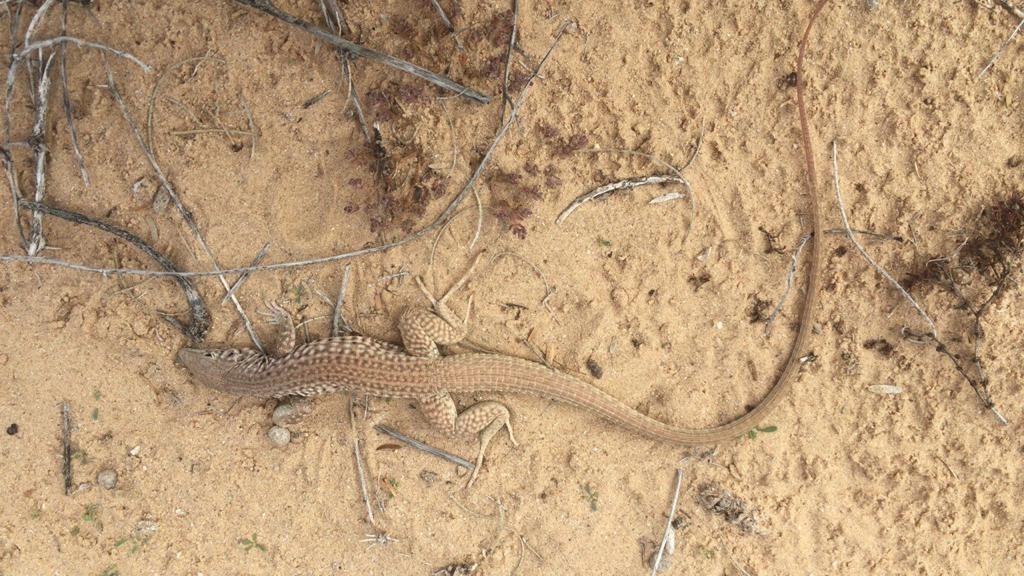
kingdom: Animalia
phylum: Chordata
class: Squamata
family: Teiidae
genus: Aspidoscelis
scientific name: Aspidoscelis tigris
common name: Tiger whiptail
